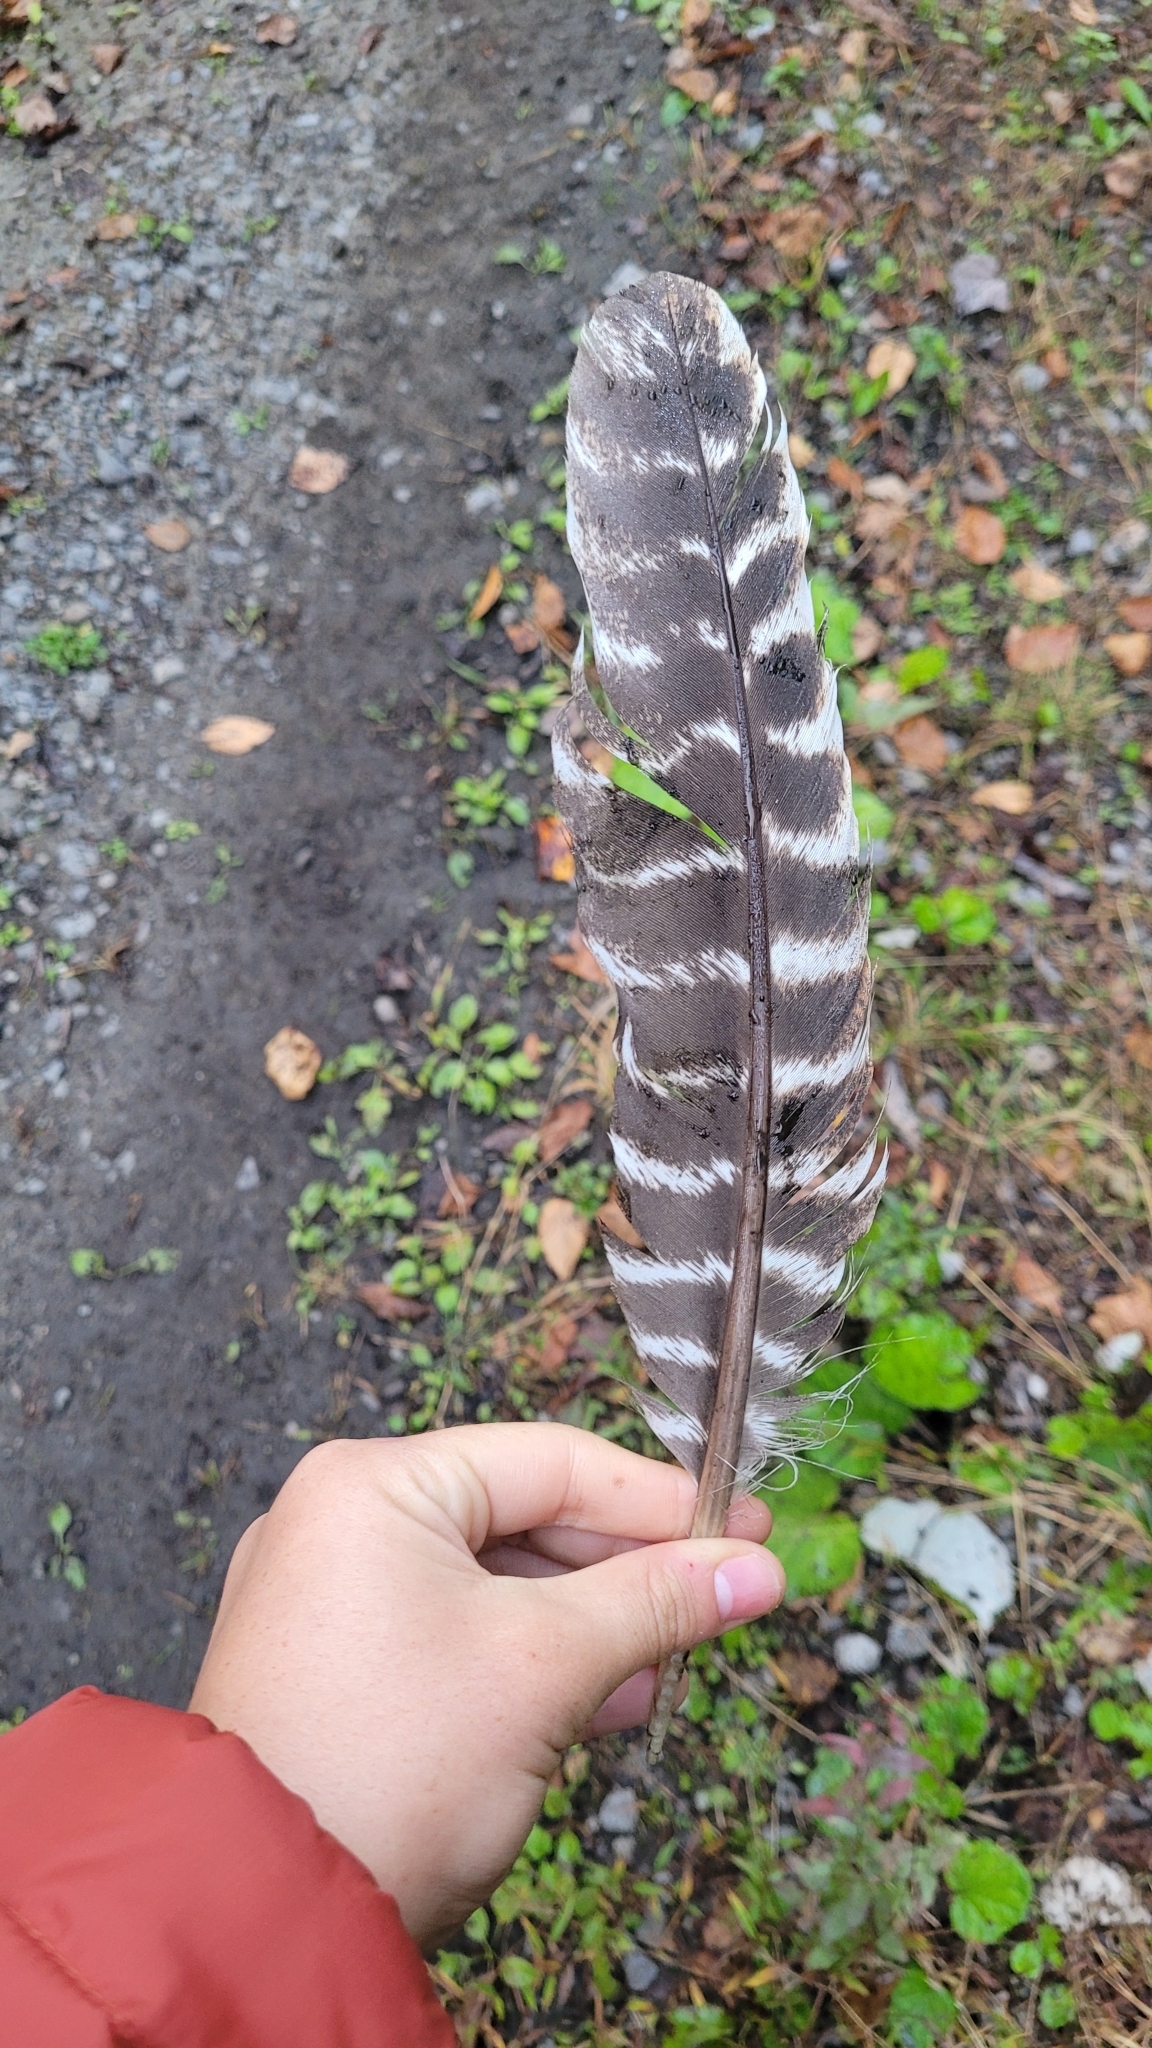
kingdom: Animalia
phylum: Chordata
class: Aves
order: Galliformes
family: Phasianidae
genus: Meleagris
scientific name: Meleagris gallopavo
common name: Wild turkey
